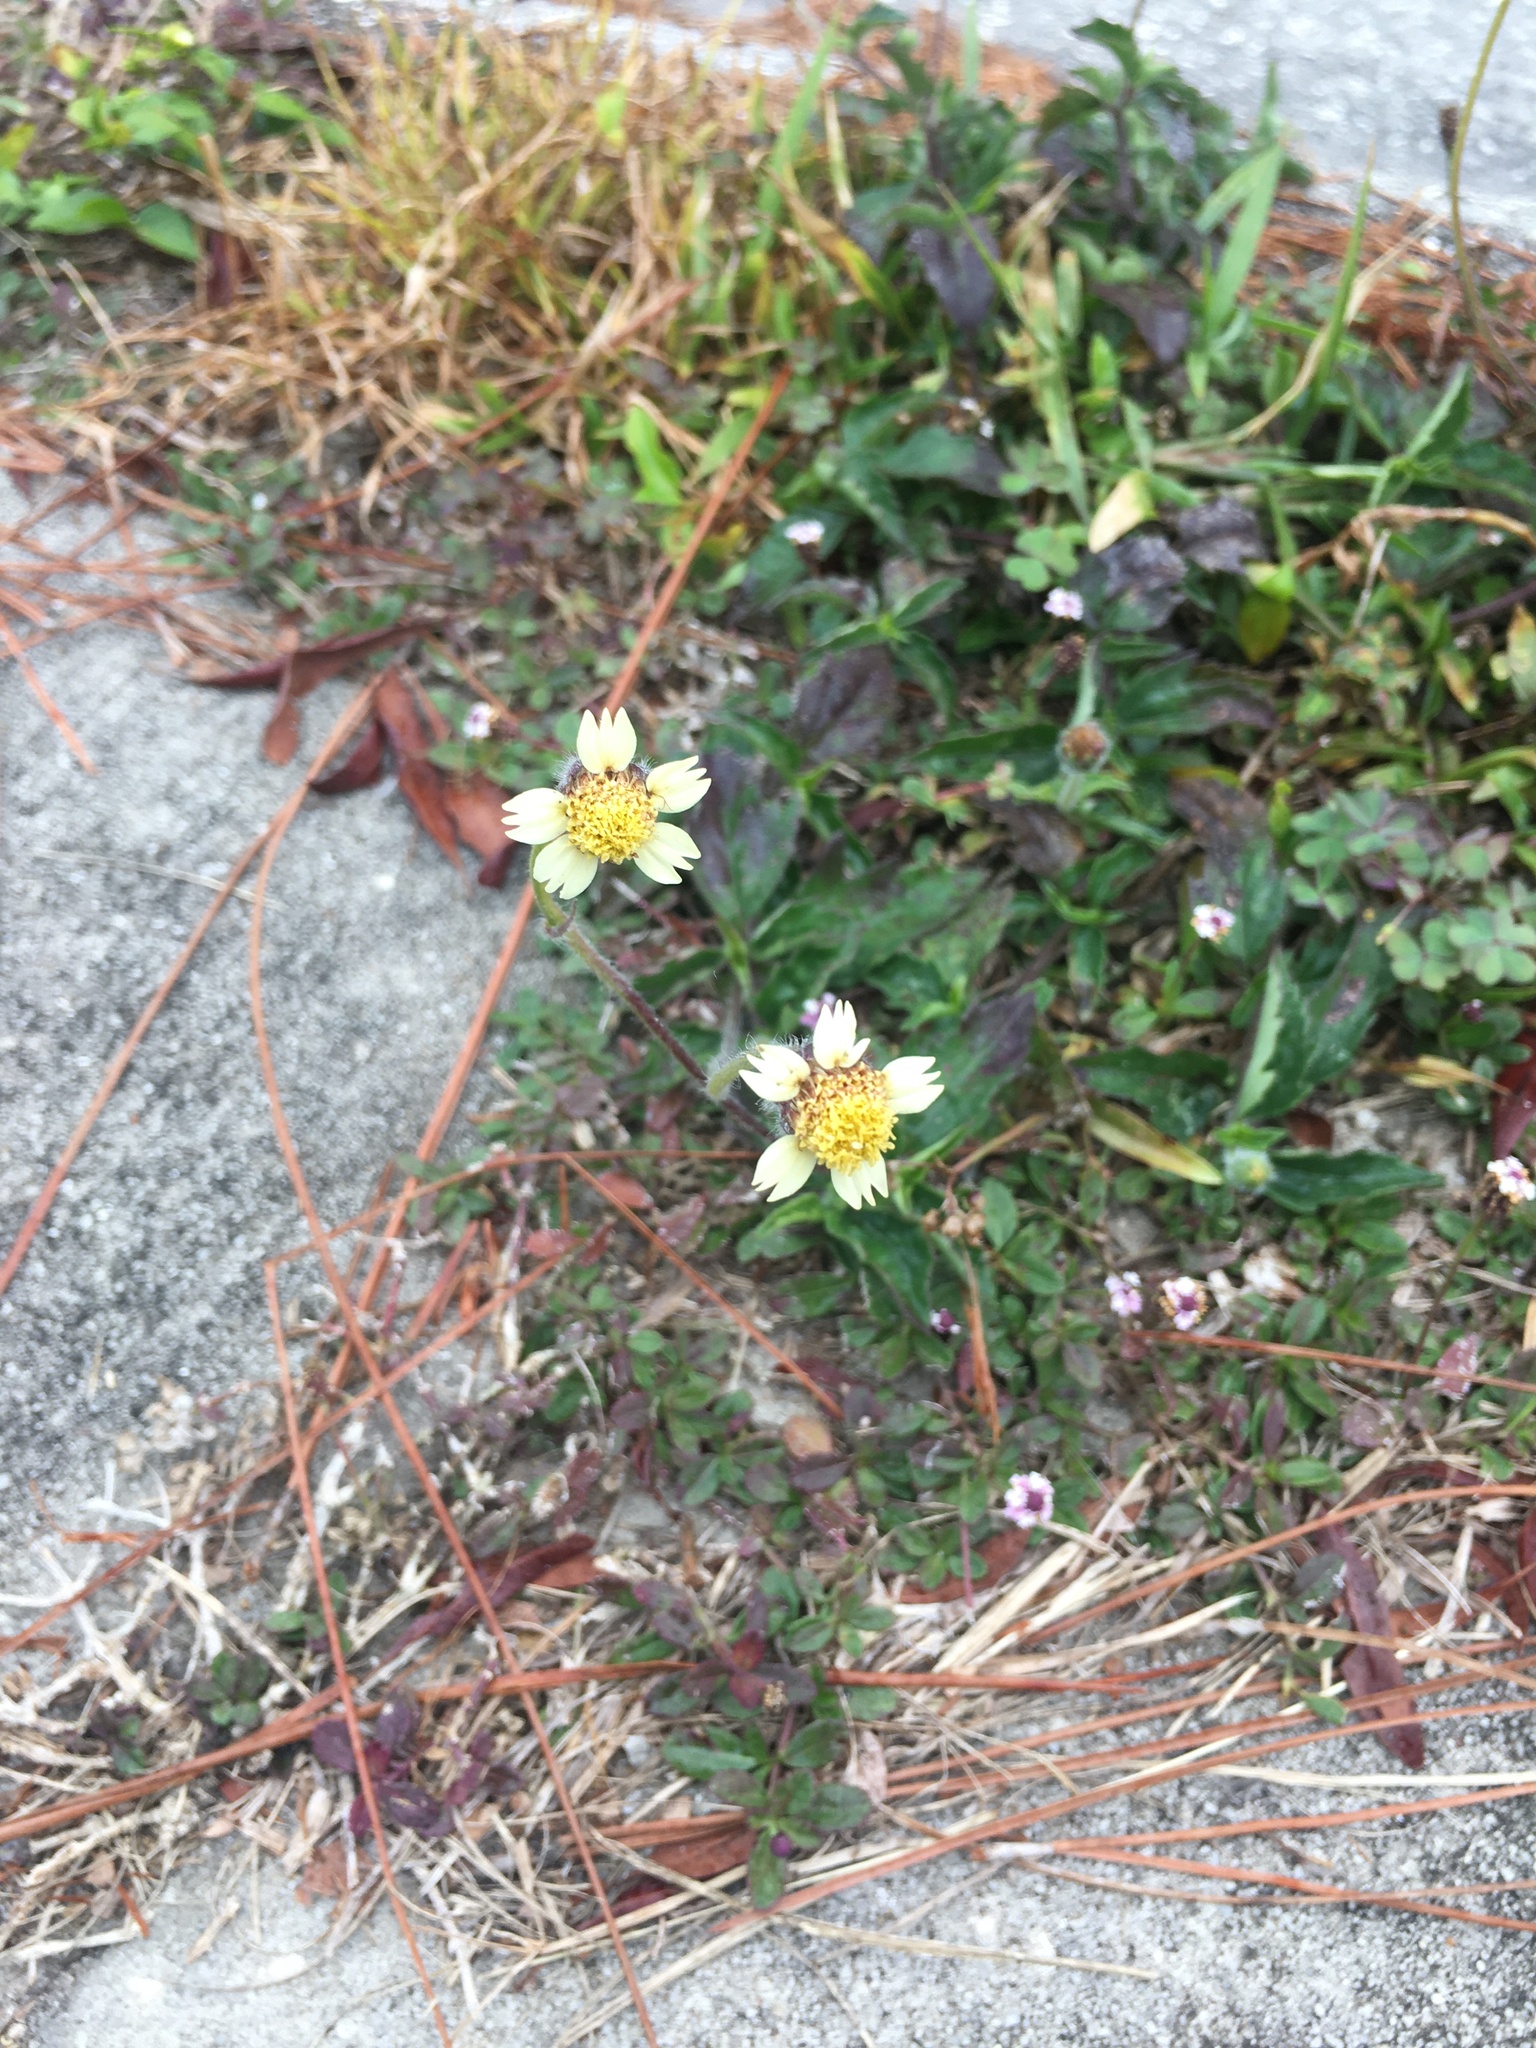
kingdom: Plantae
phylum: Tracheophyta
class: Magnoliopsida
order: Asterales
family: Asteraceae
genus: Tridax
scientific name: Tridax procumbens
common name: Coatbuttons
